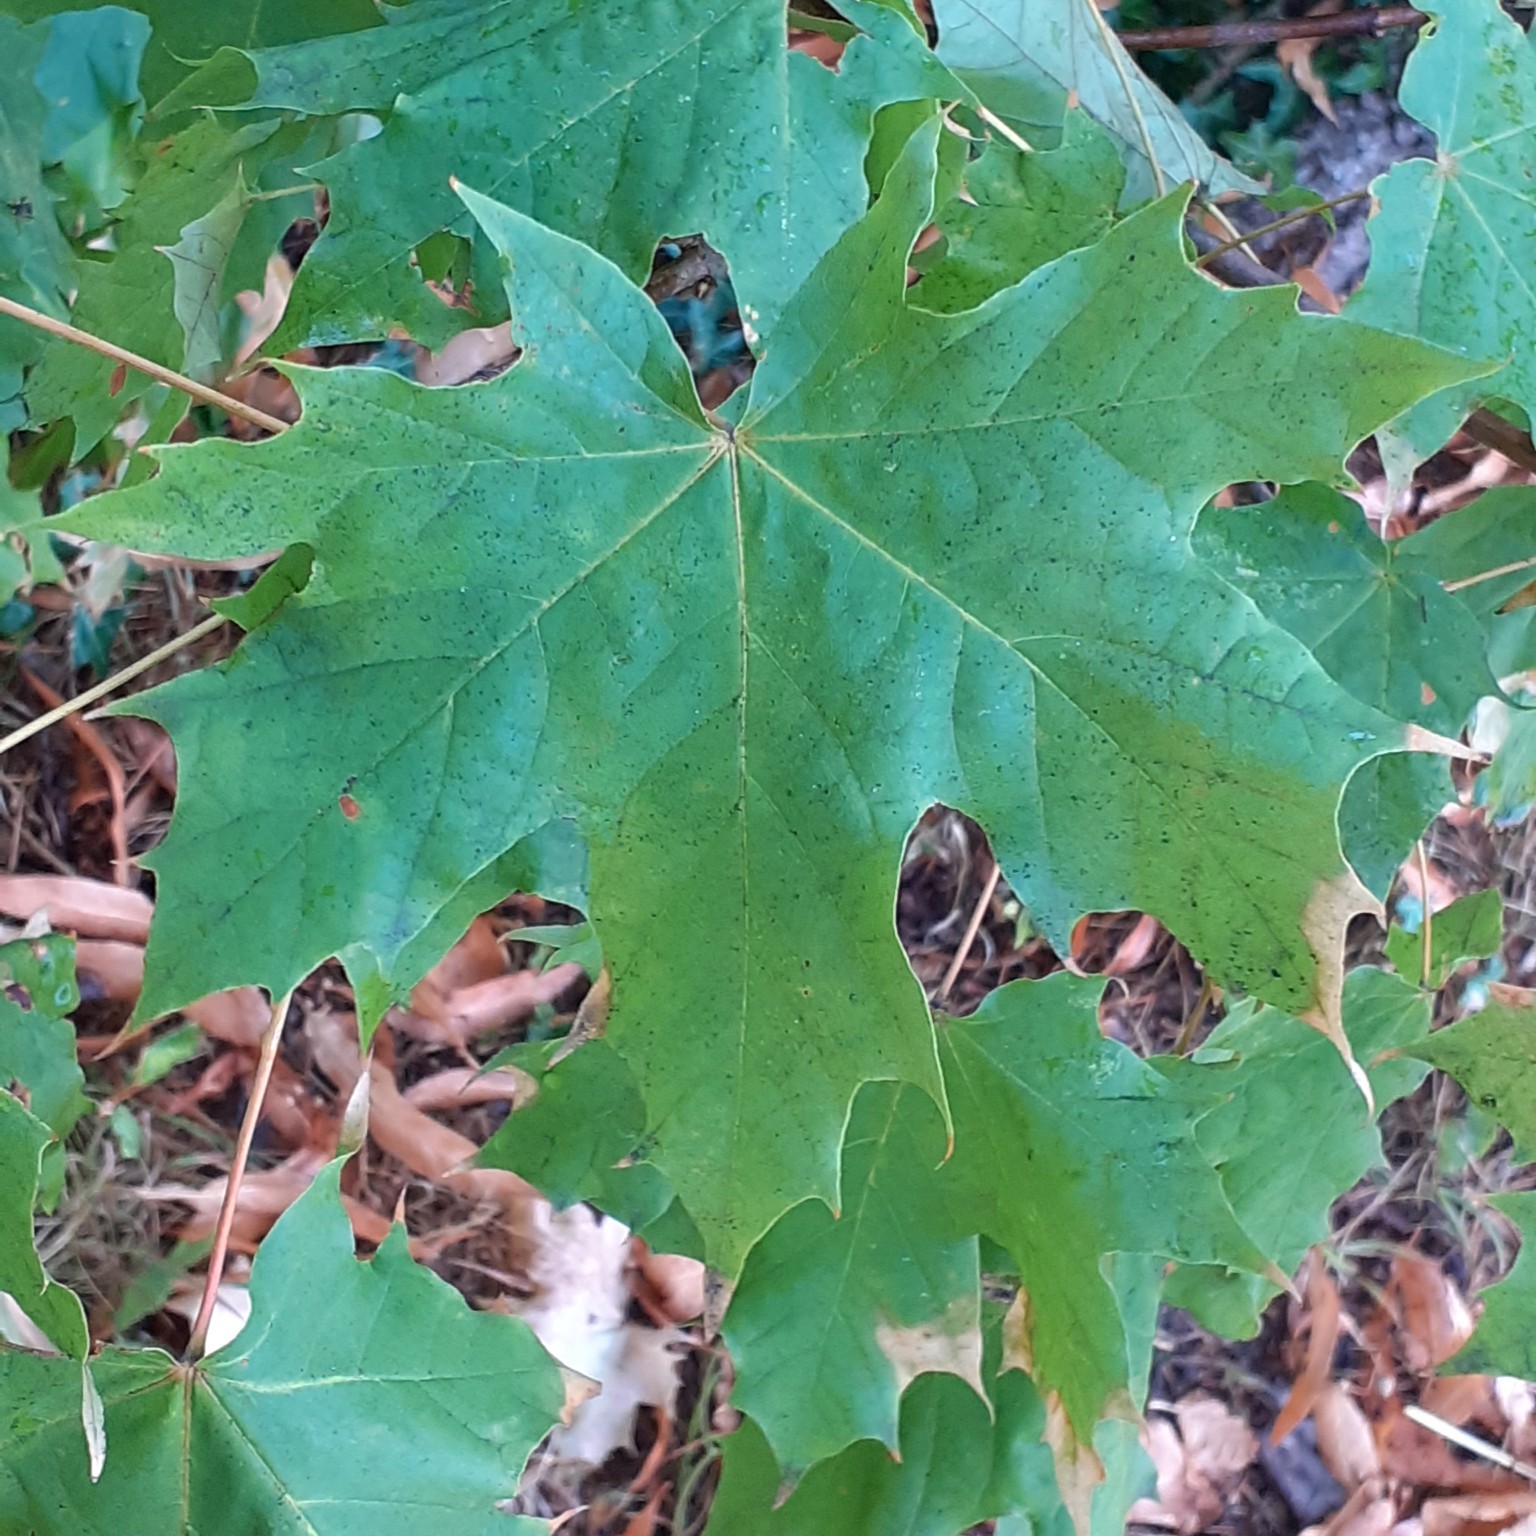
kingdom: Plantae
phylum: Tracheophyta
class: Magnoliopsida
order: Sapindales
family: Sapindaceae
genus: Acer
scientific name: Acer platanoides
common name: Norway maple
